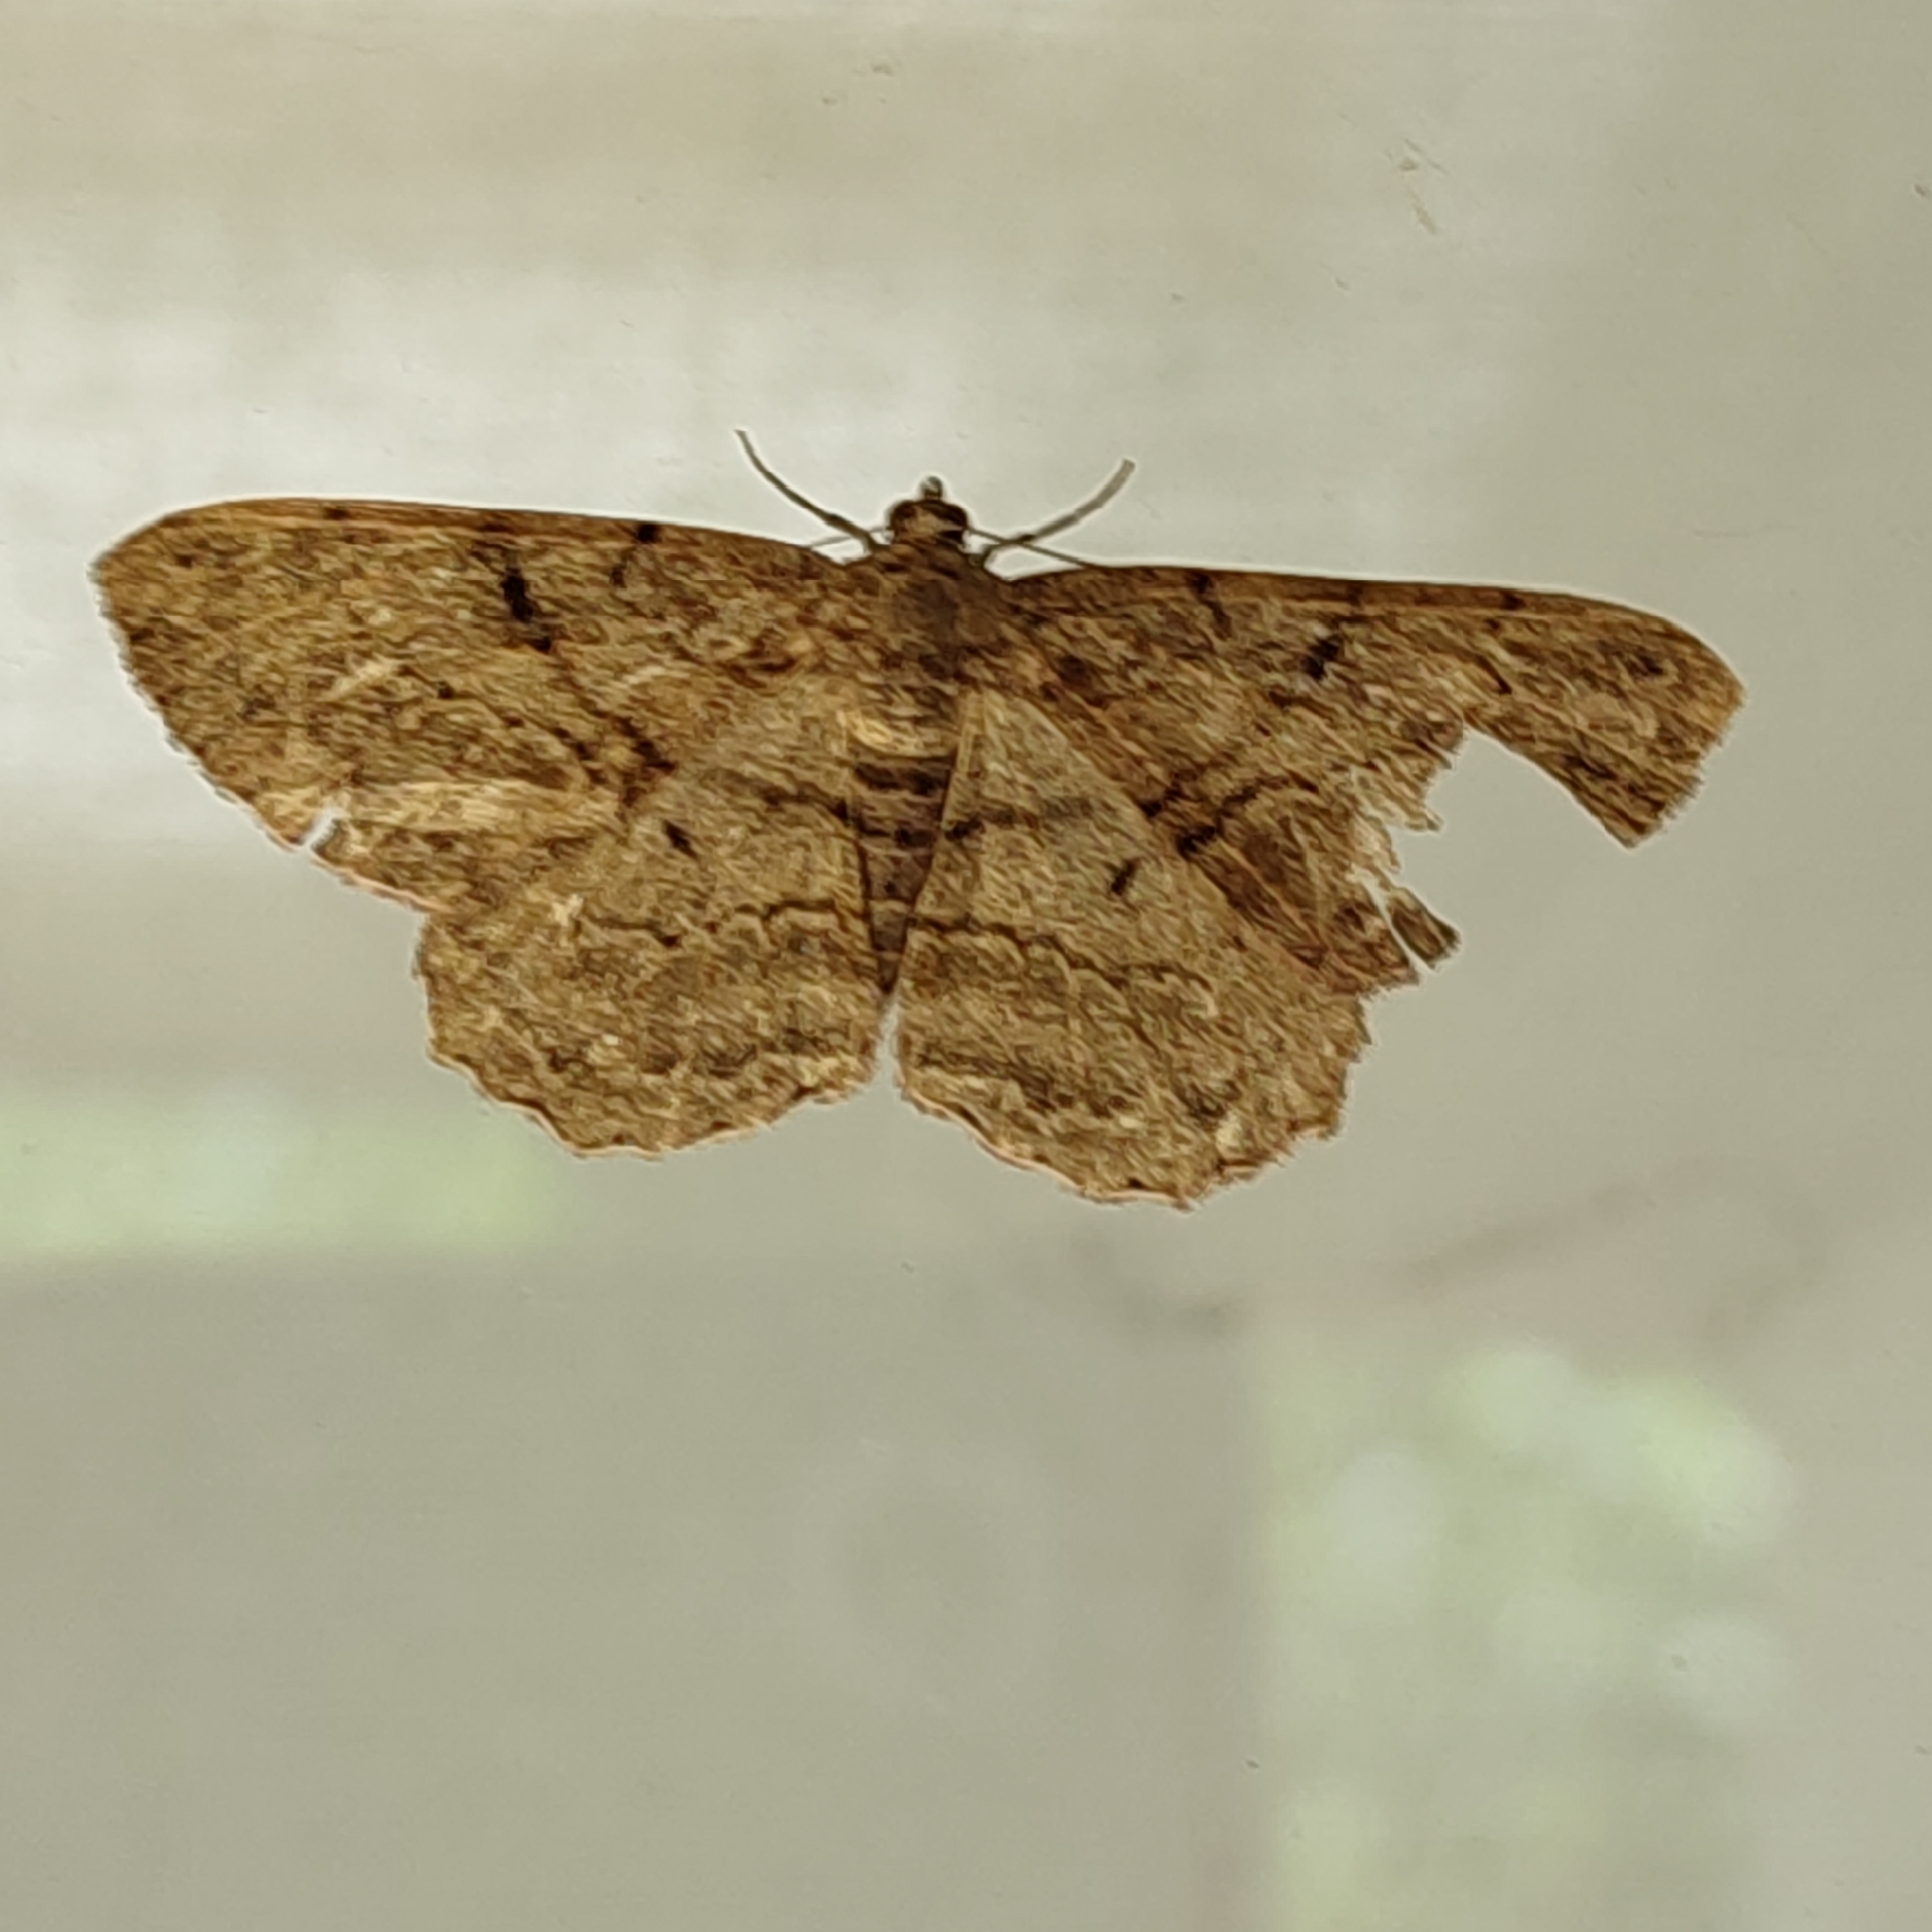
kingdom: Animalia
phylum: Arthropoda
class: Insecta
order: Lepidoptera
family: Geometridae
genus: Peribatodes
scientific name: Peribatodes rhomboidaria
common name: Willow beauty
